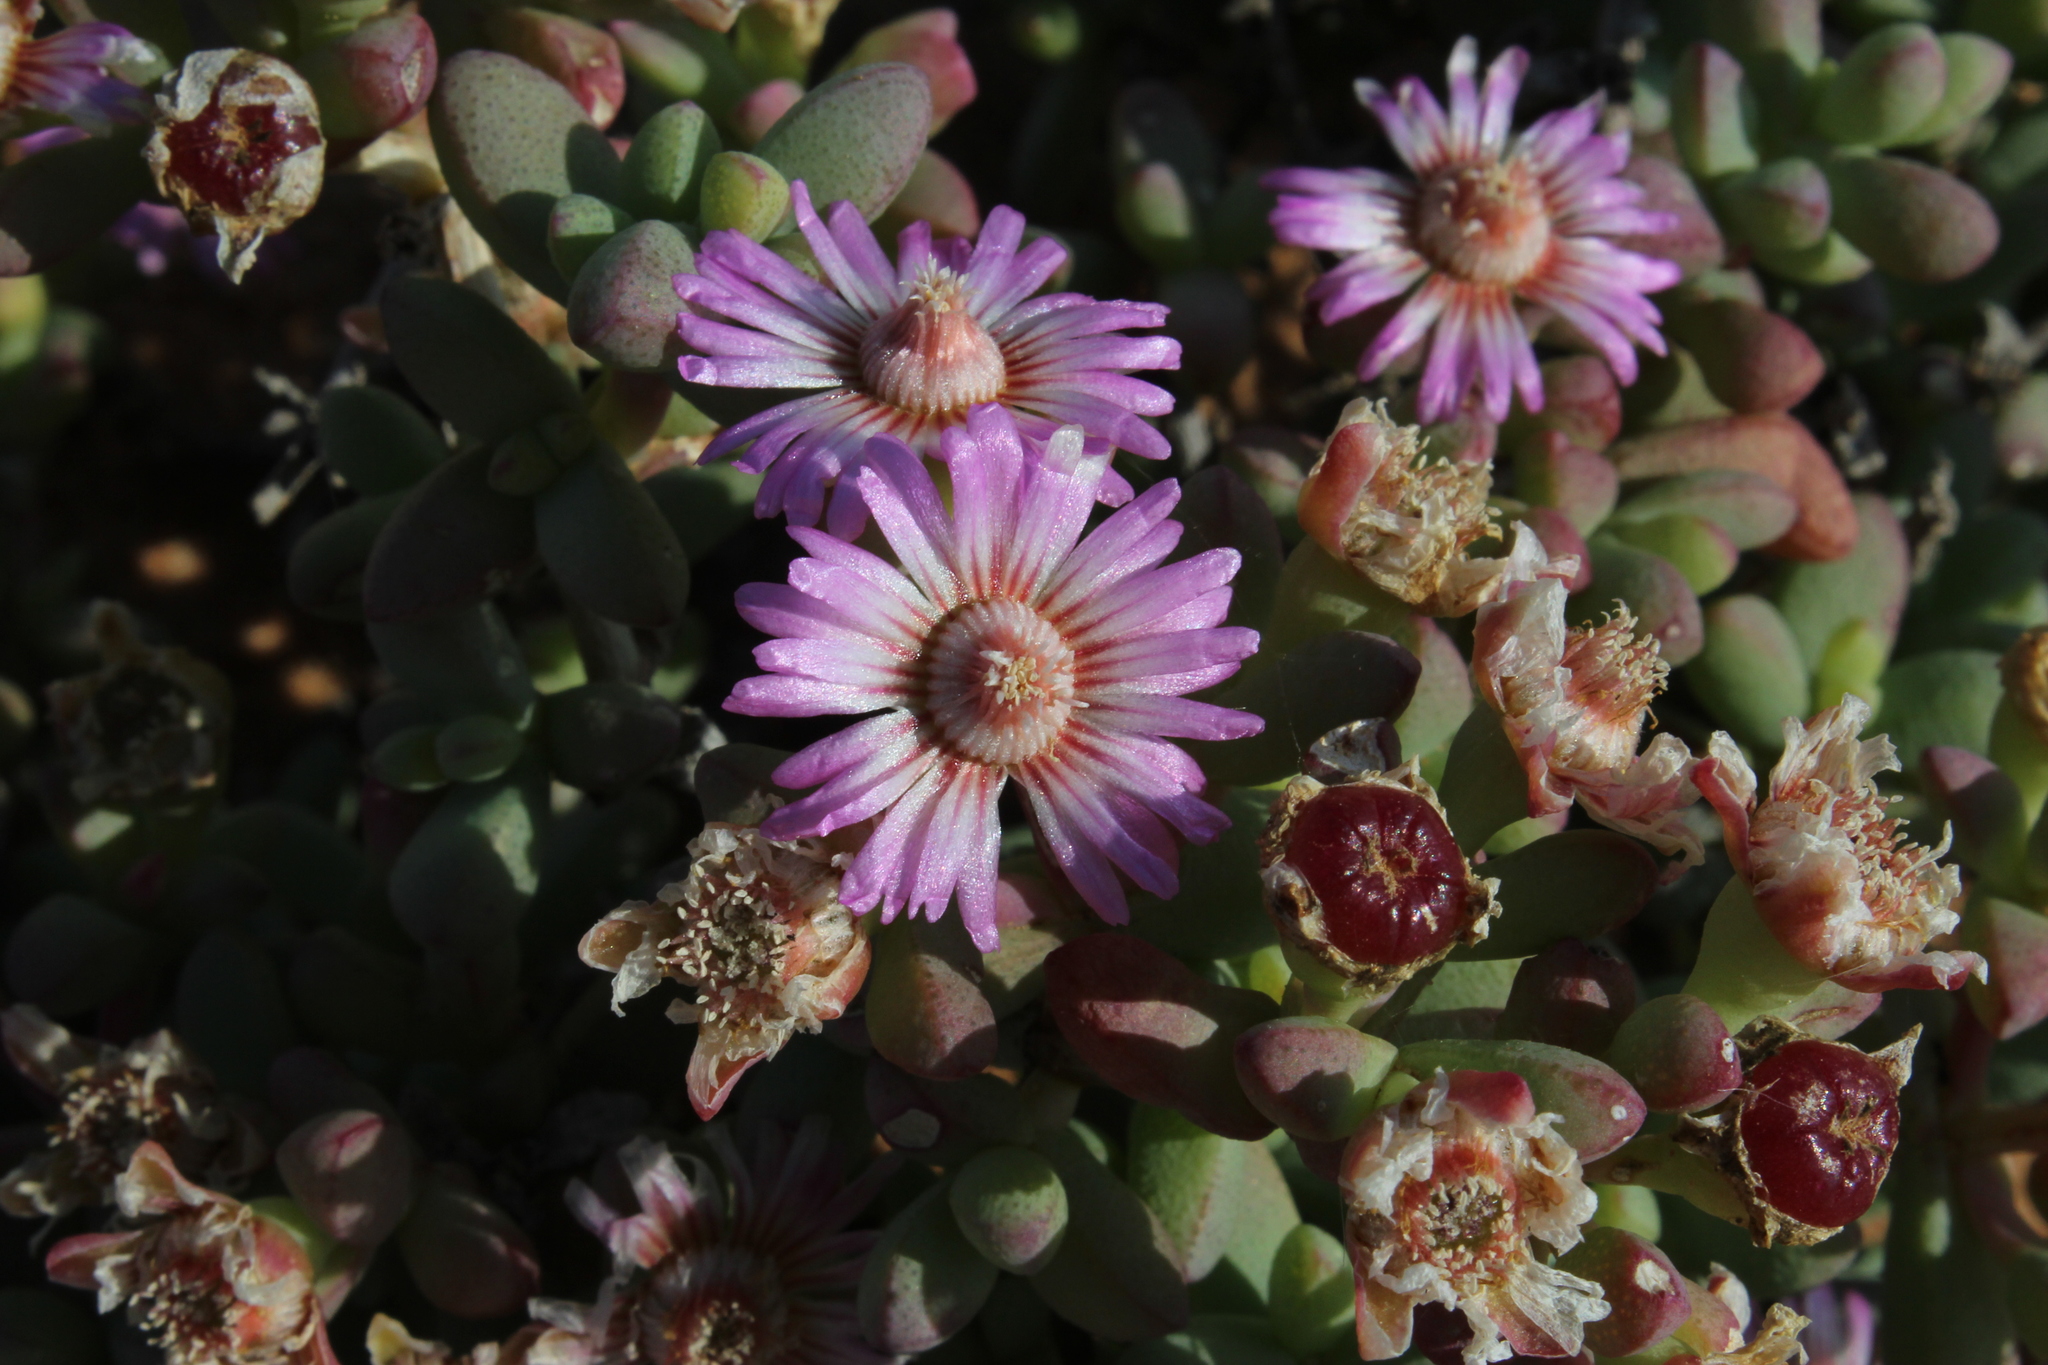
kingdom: Plantae
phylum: Tracheophyta
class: Magnoliopsida
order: Caryophyllales
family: Aizoaceae
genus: Amphibolia
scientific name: Amphibolia succulenta
